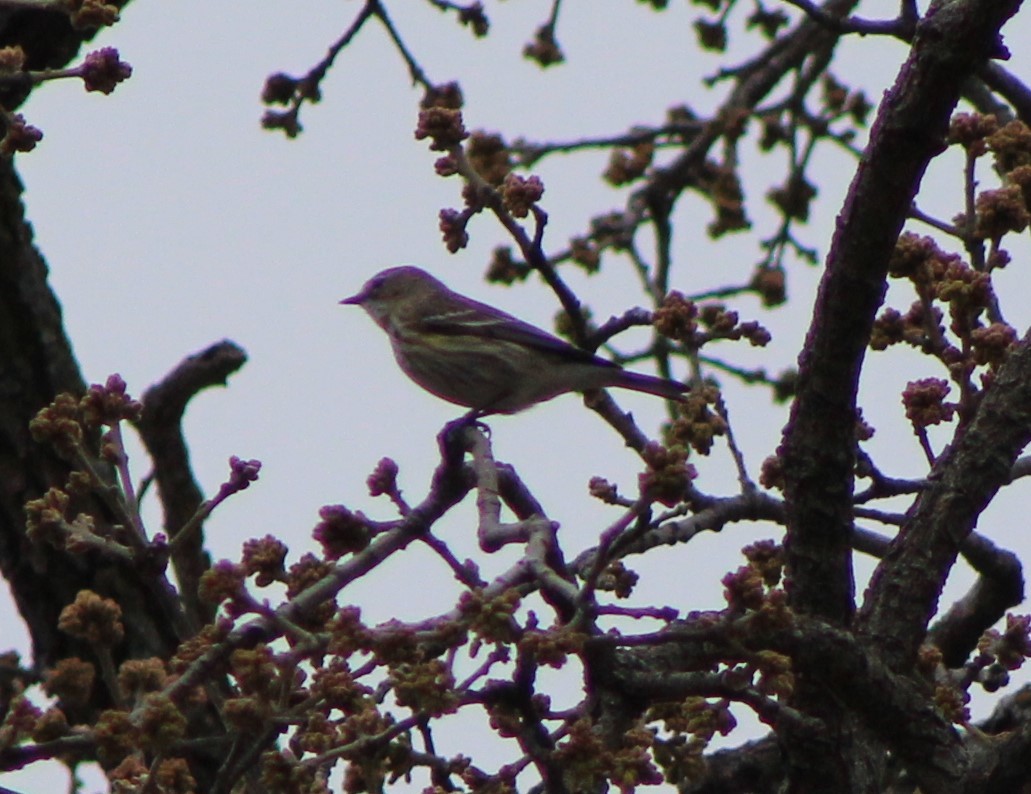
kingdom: Animalia
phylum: Chordata
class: Aves
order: Passeriformes
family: Parulidae
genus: Setophaga
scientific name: Setophaga coronata
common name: Myrtle warbler
